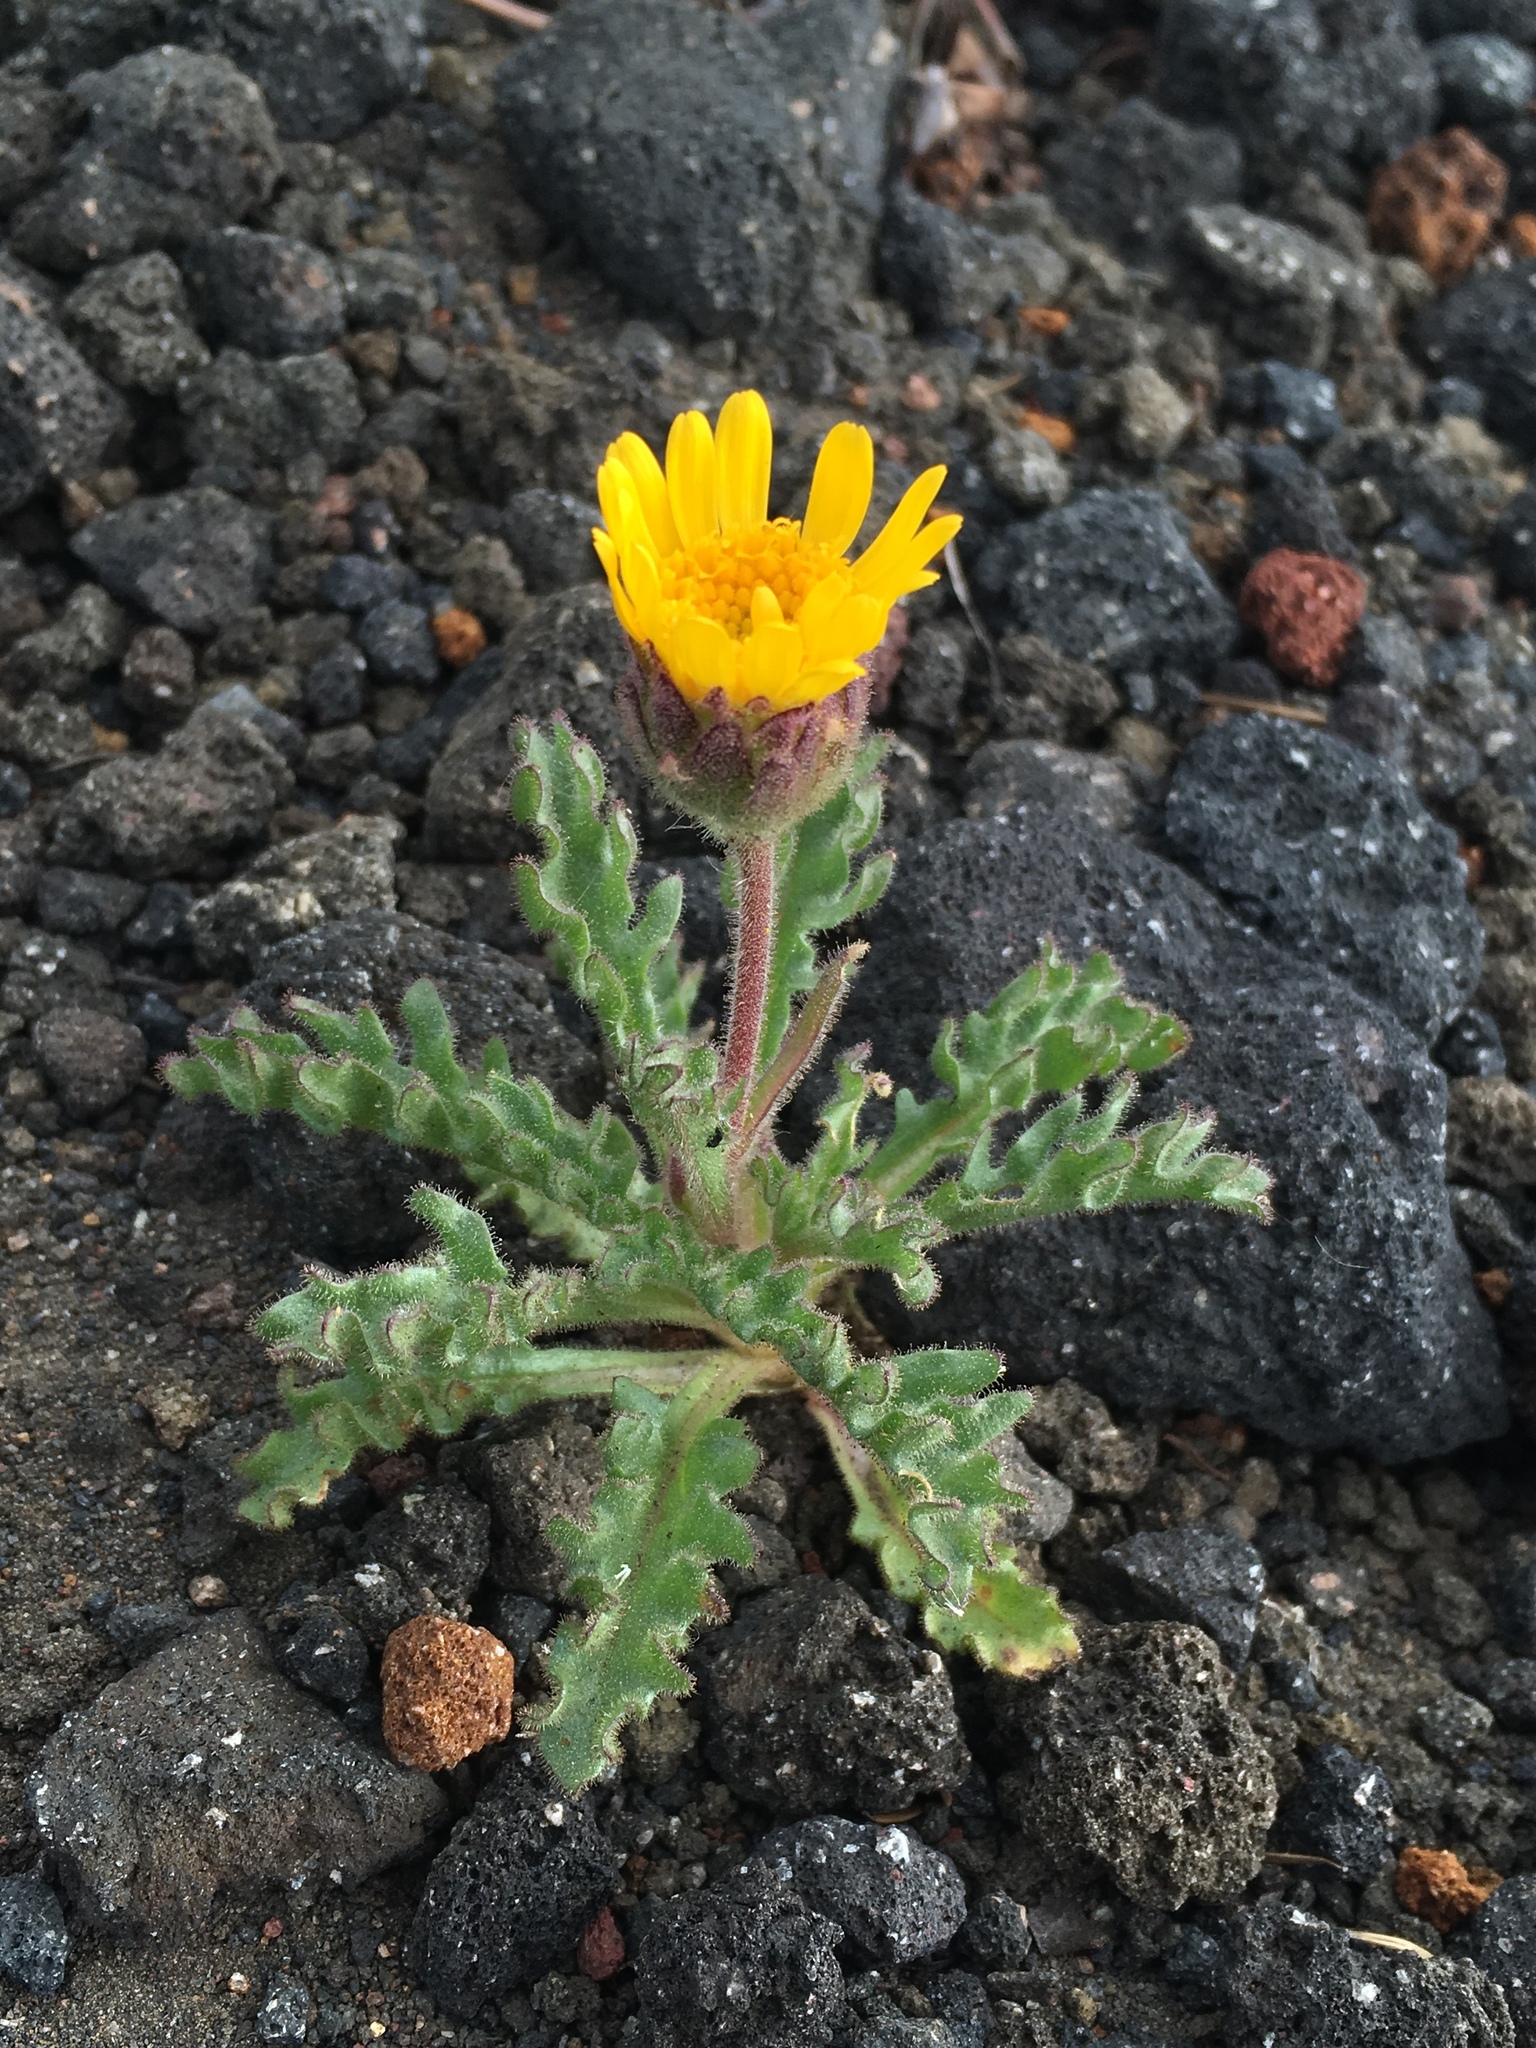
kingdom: Plantae
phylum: Tracheophyta
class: Magnoliopsida
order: Asterales
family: Asteraceae
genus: Hulsea
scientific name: Hulsea nana
